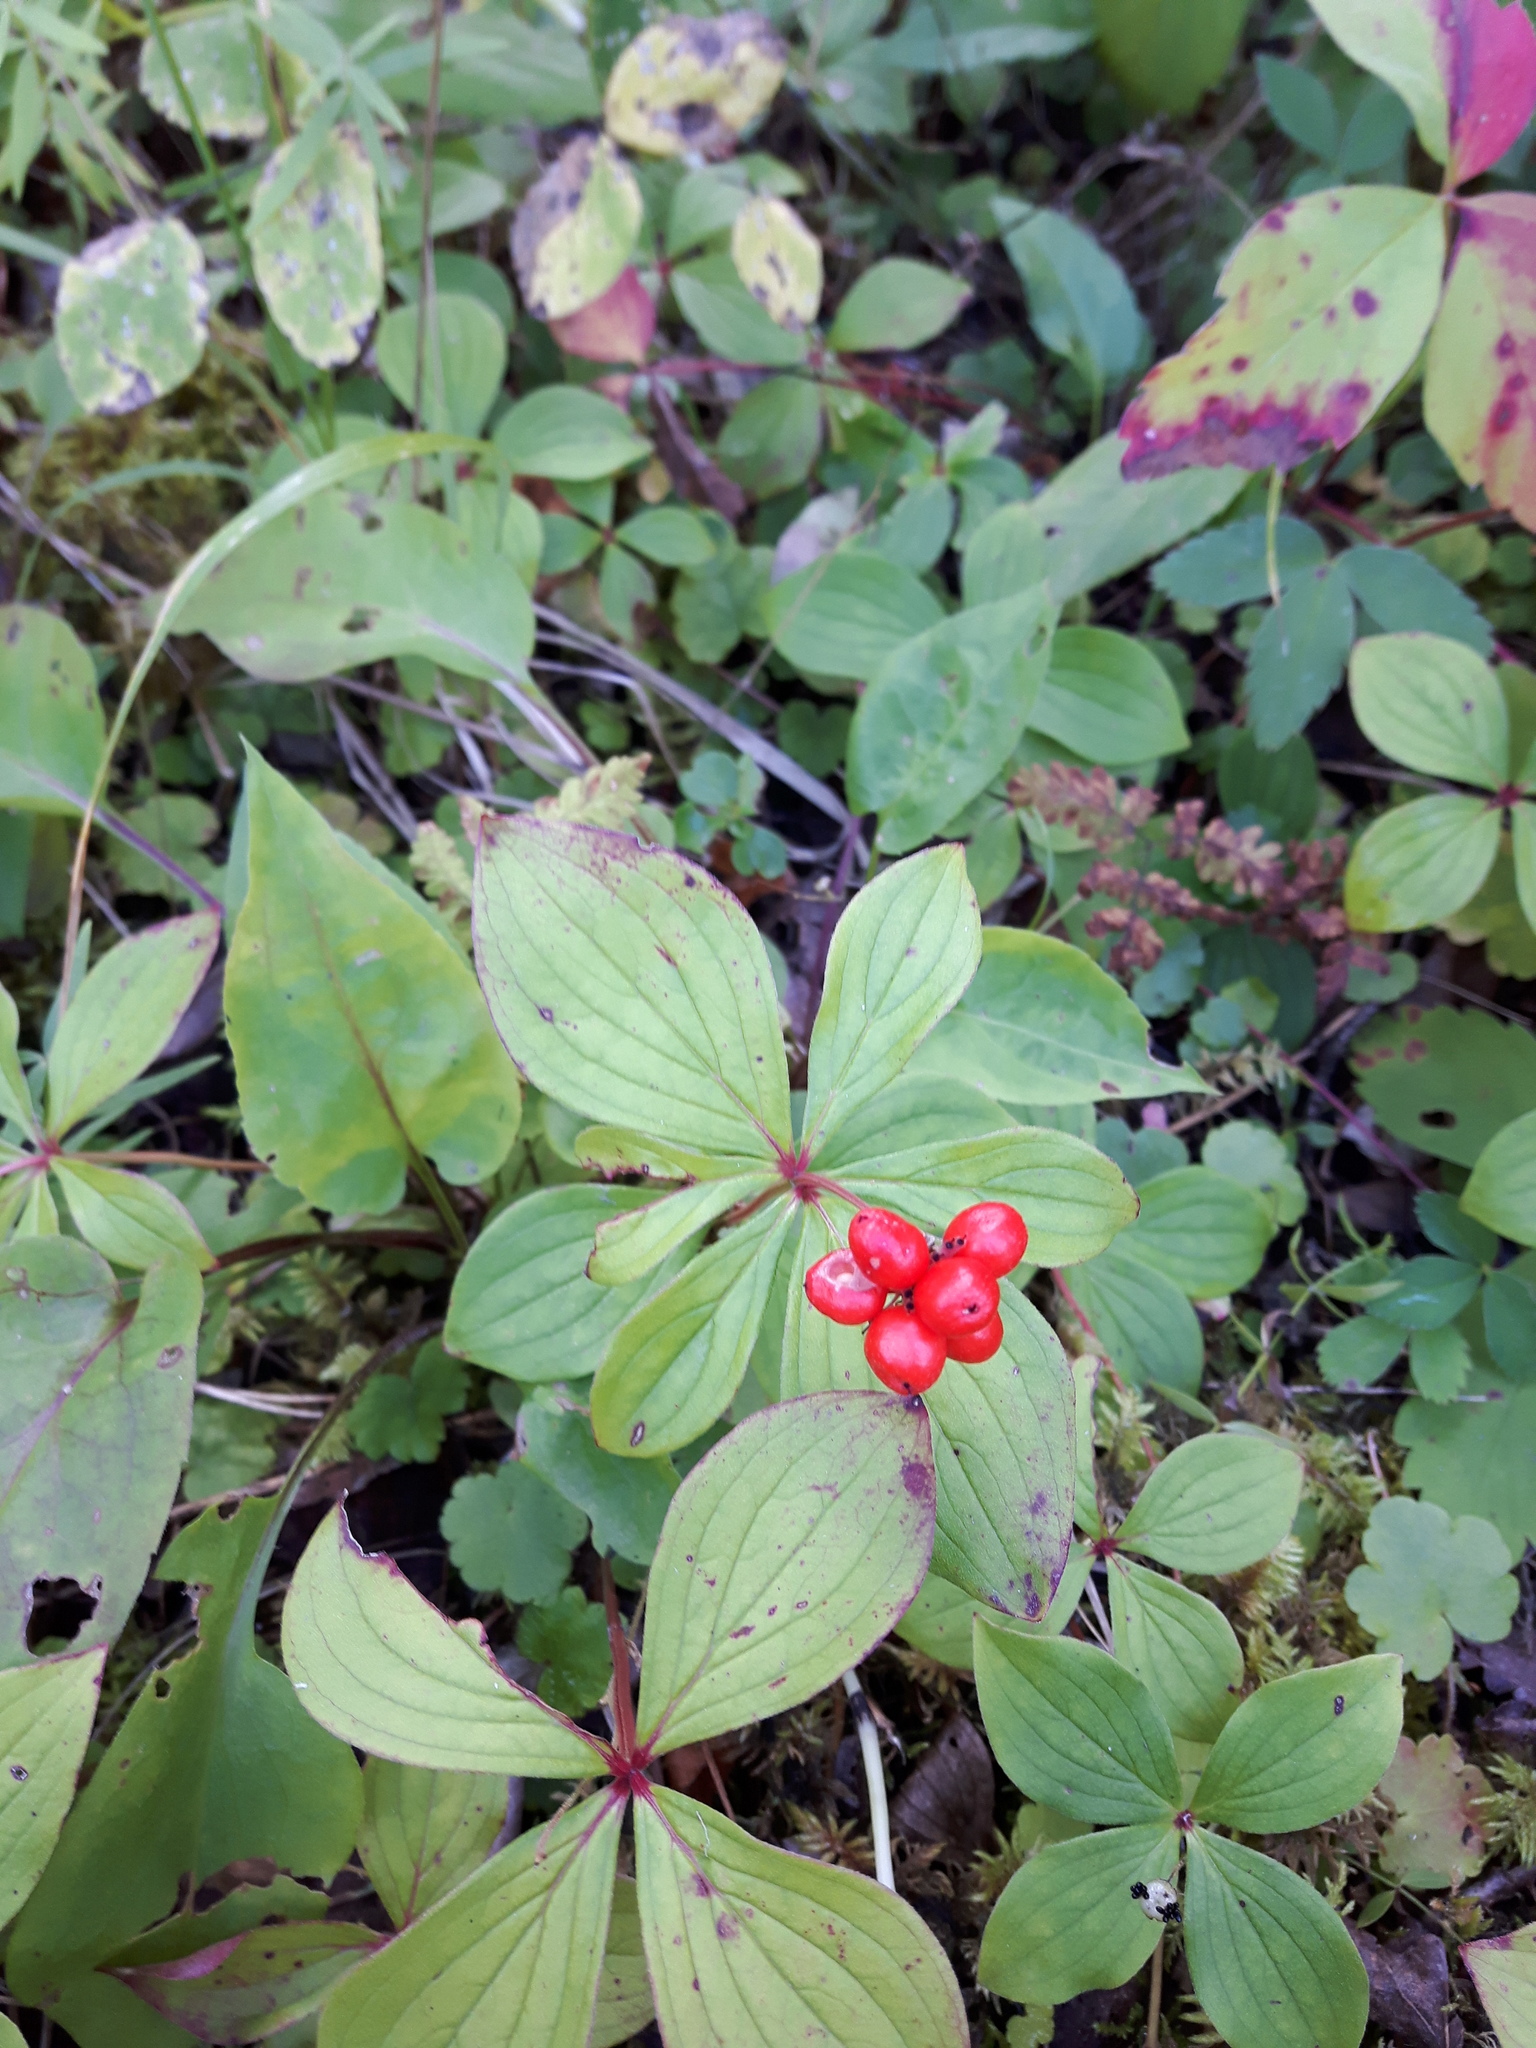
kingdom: Plantae
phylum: Tracheophyta
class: Magnoliopsida
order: Cornales
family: Cornaceae
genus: Cornus
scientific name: Cornus canadensis
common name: Creeping dogwood
